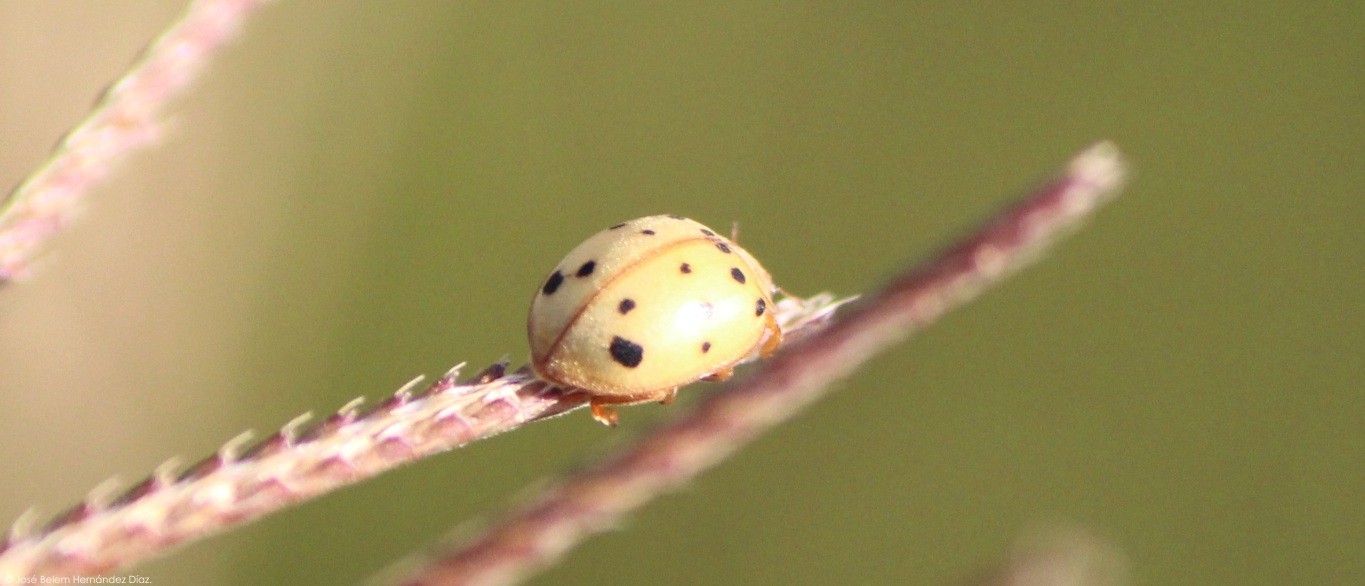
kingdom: Animalia
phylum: Arthropoda
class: Insecta
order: Coleoptera
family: Coccinellidae
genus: Epilachna
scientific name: Epilachna varivestis
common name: Ladybird beetle
